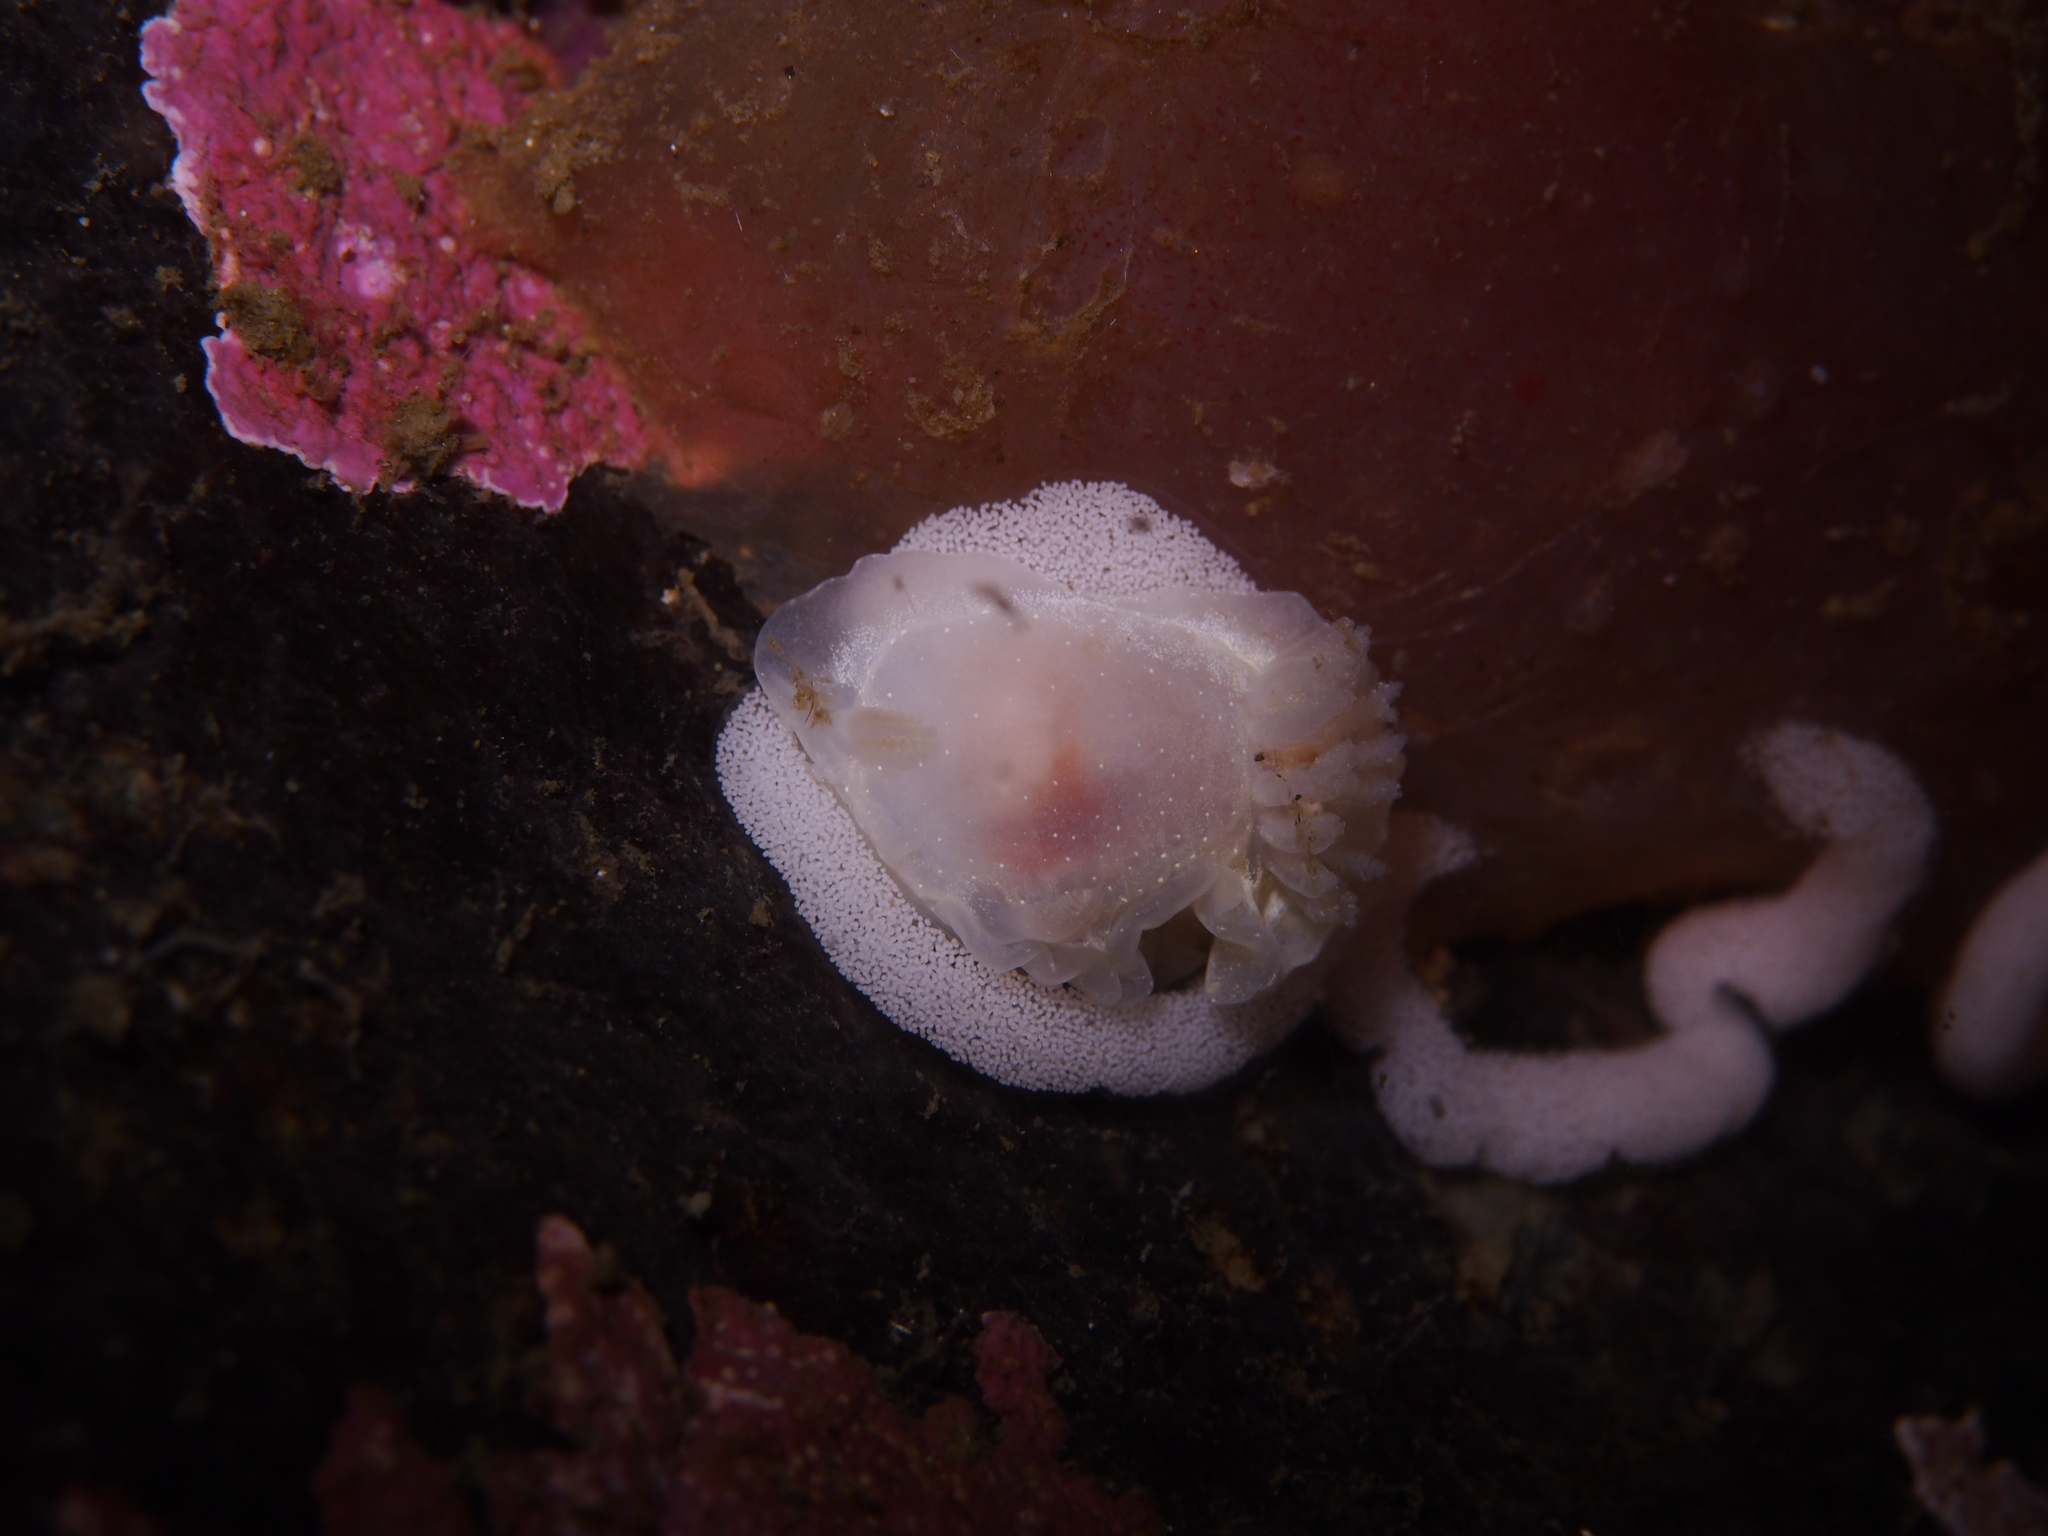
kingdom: Animalia
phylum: Mollusca
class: Gastropoda
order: Nudibranchia
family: Goniodorididae
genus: Okenia
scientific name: Okenia
